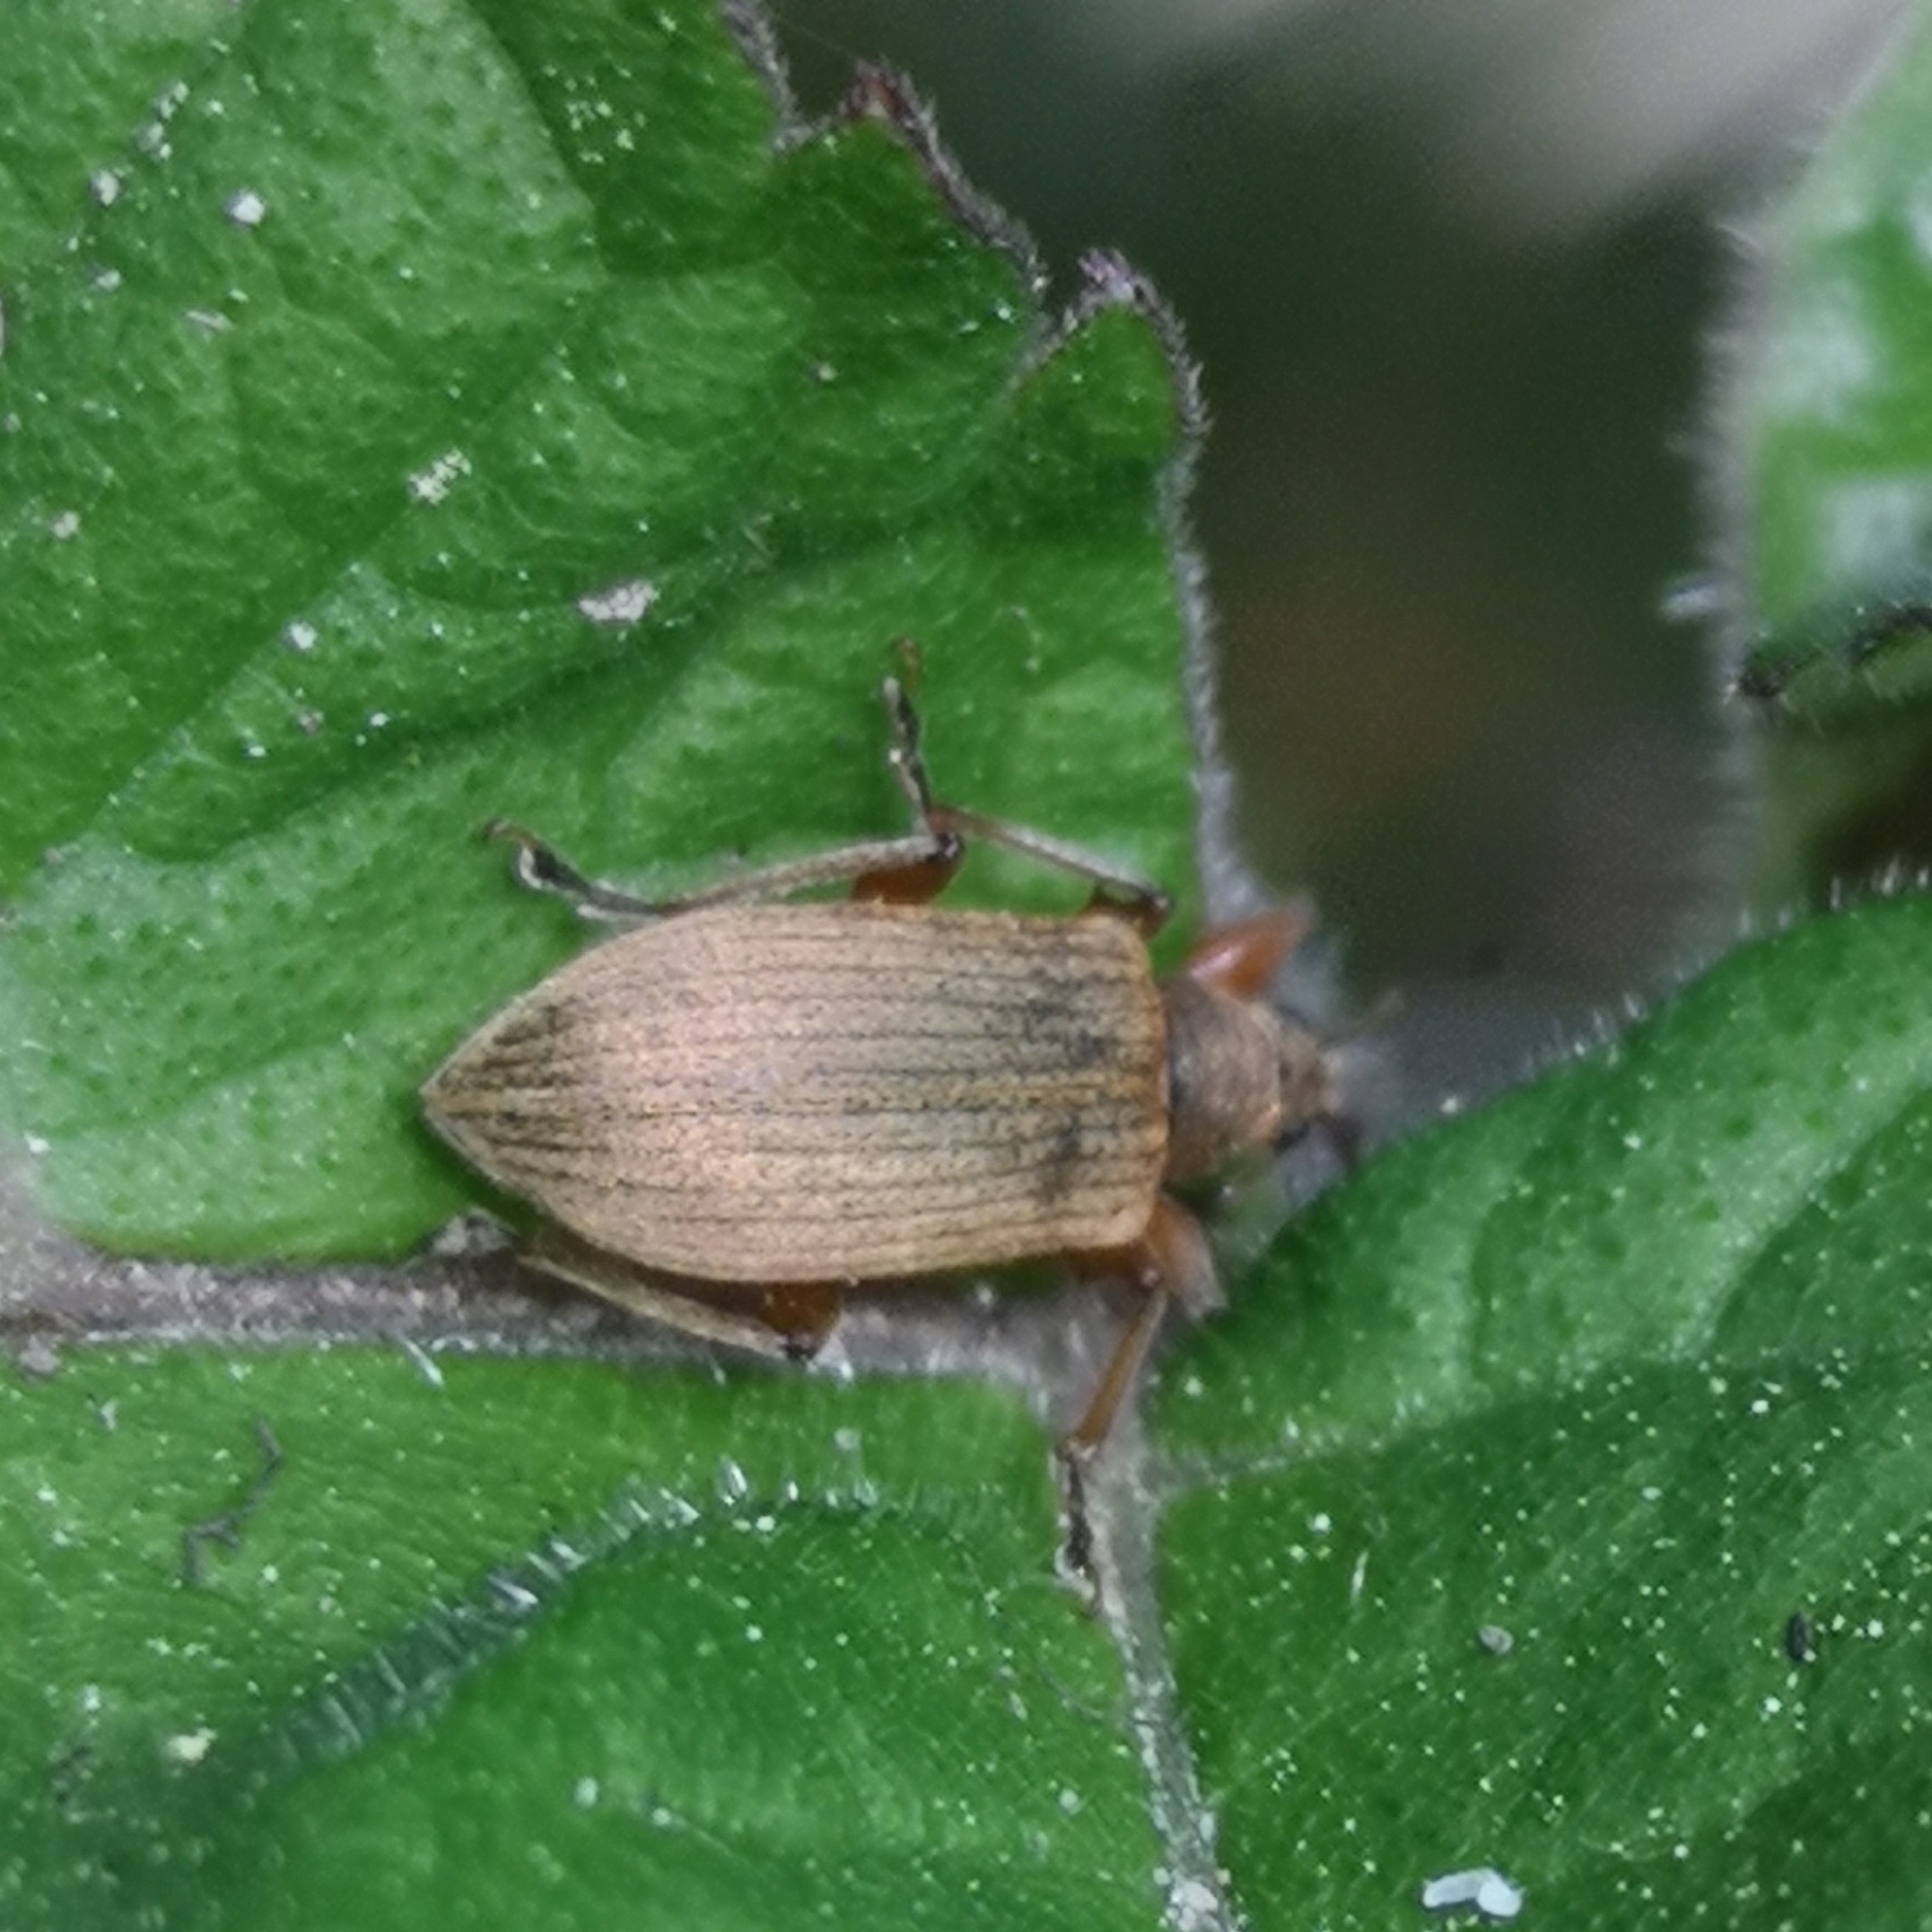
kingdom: Animalia
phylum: Arthropoda
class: Insecta
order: Coleoptera
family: Curculionidae
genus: Phyllobius
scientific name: Phyllobius glaucus
